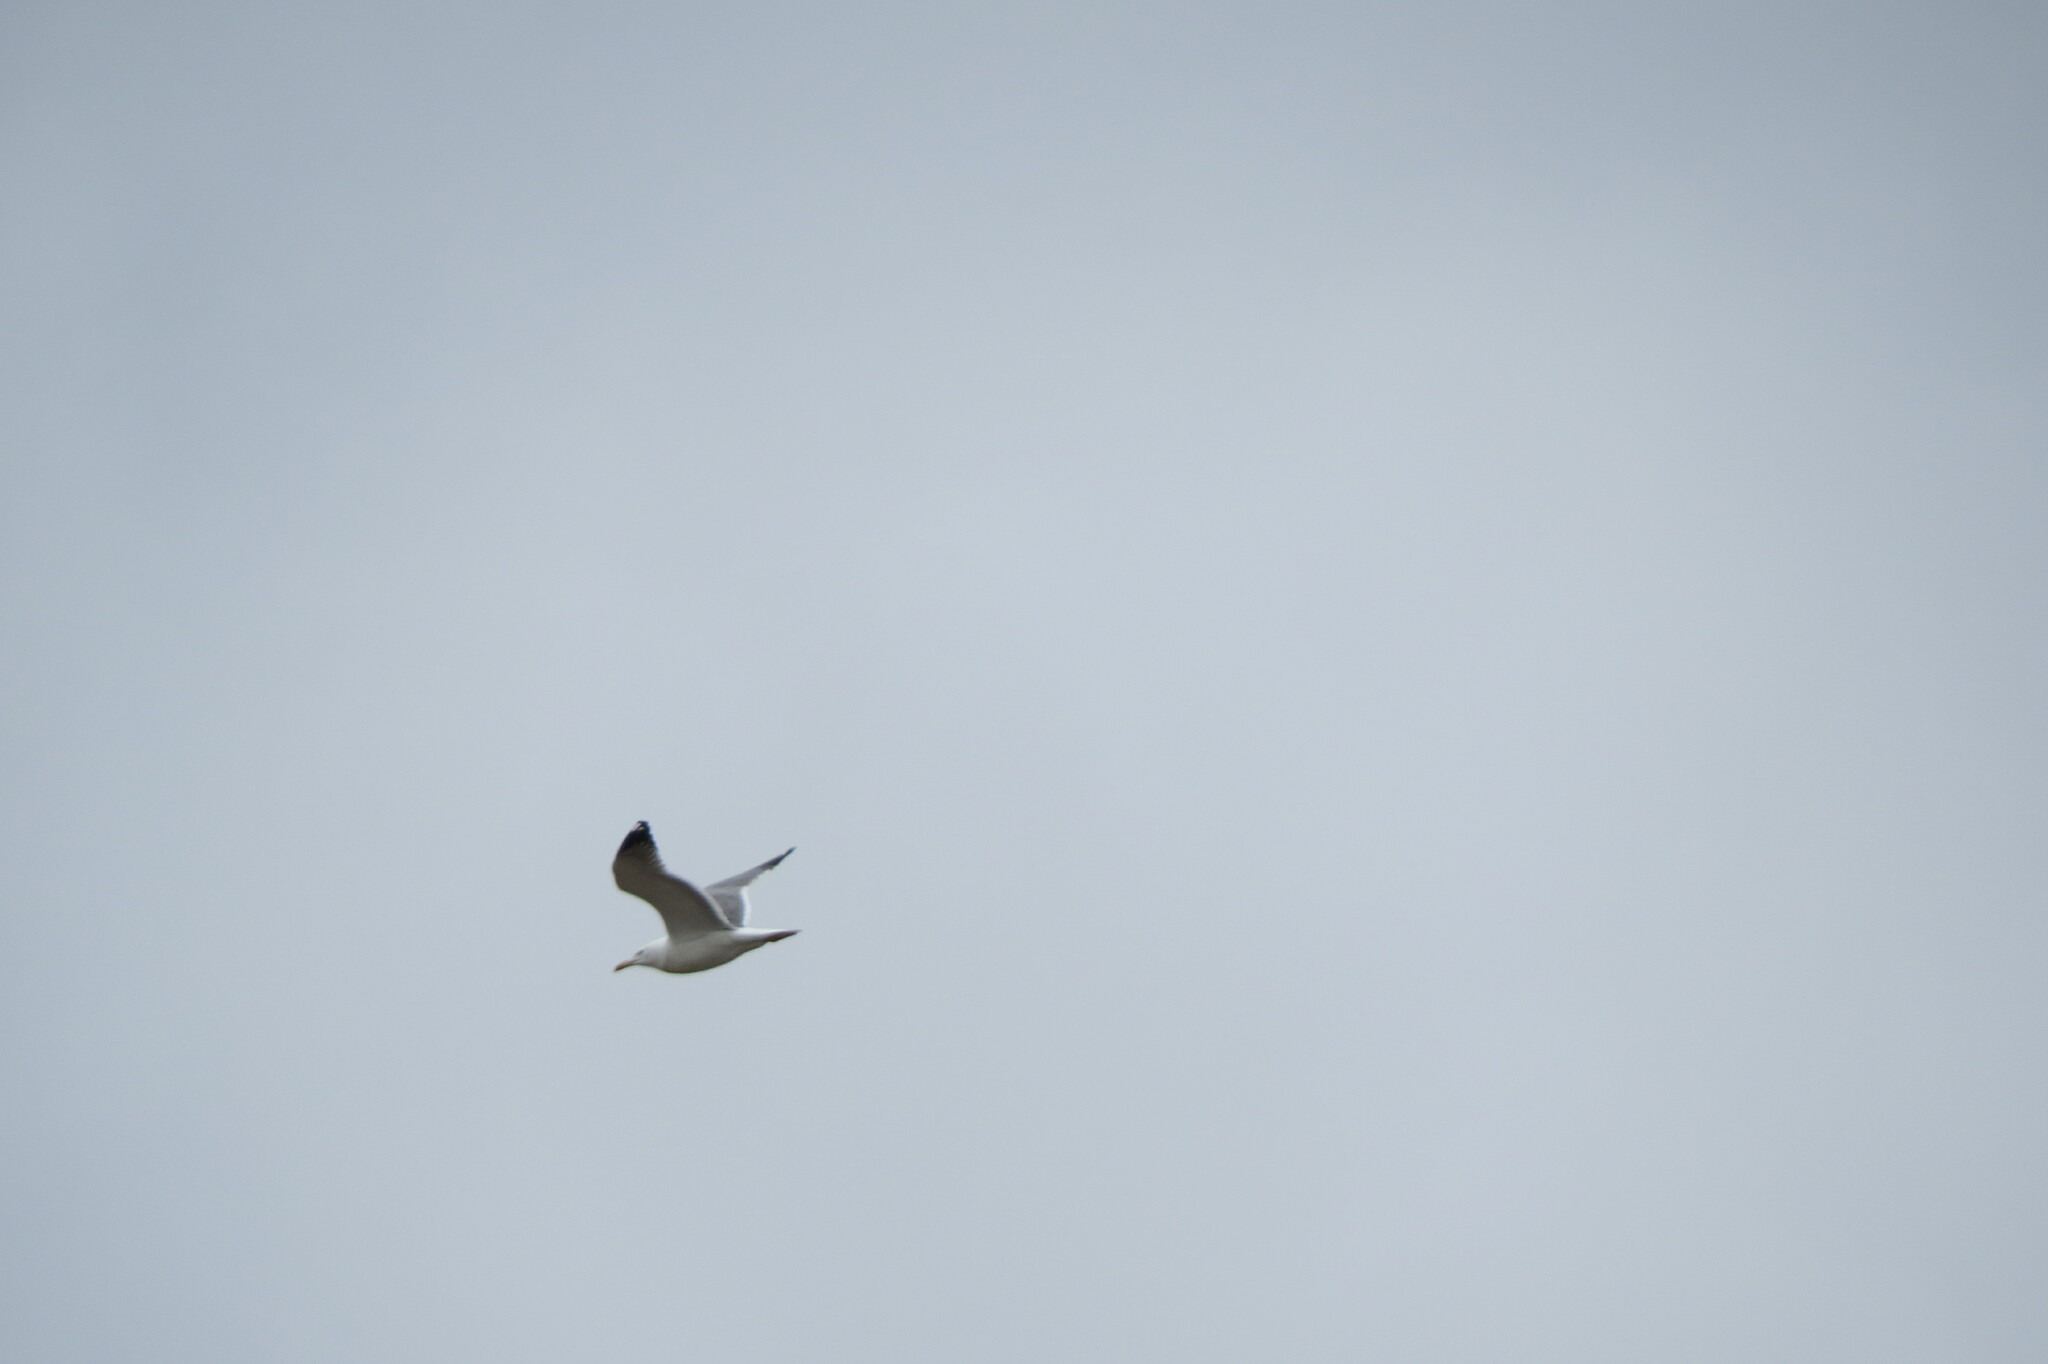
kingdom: Animalia
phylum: Chordata
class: Aves
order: Charadriiformes
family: Laridae
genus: Larus
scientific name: Larus fuscus
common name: Lesser black-backed gull
